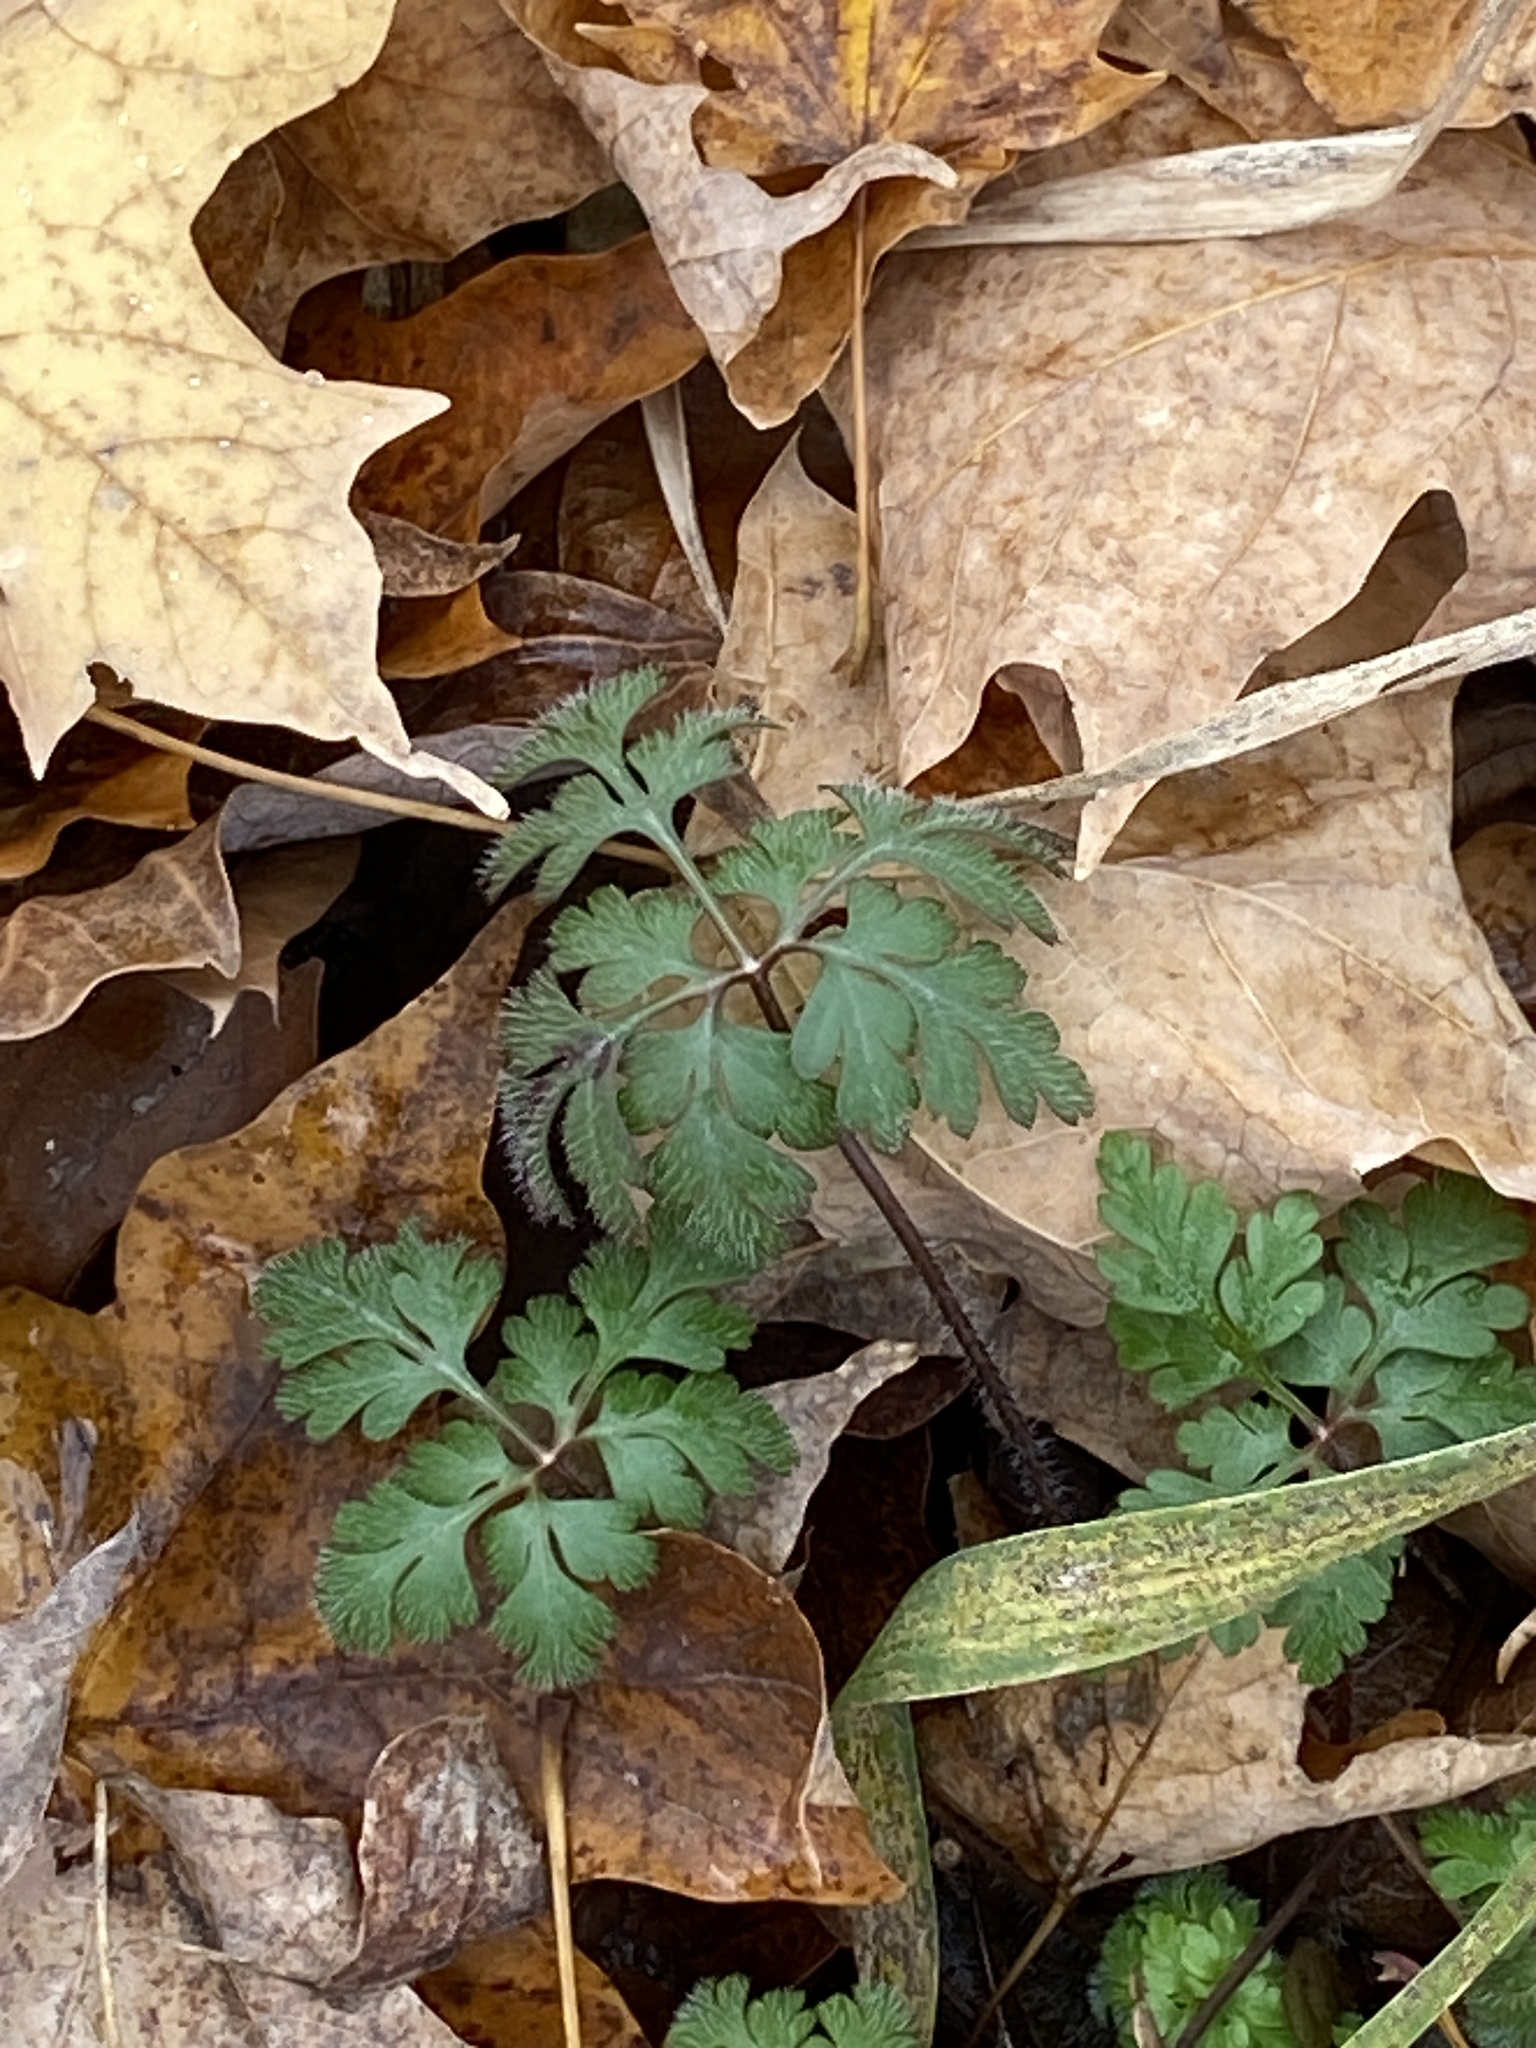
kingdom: Plantae
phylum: Tracheophyta
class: Magnoliopsida
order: Geraniales
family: Geraniaceae
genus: Geranium
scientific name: Geranium robertianum
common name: Herb-robert
